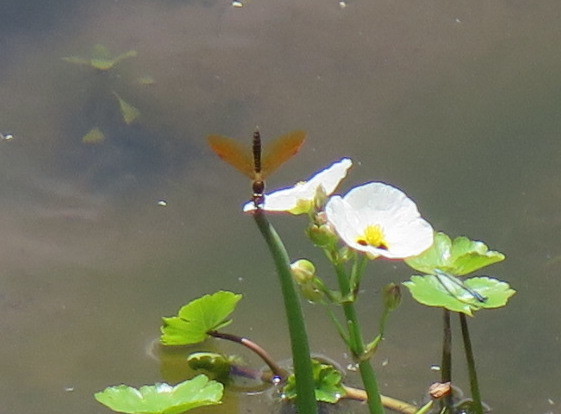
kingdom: Animalia
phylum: Arthropoda
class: Insecta
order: Odonata
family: Libellulidae
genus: Perithemis
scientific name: Perithemis tenera
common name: Eastern amberwing
